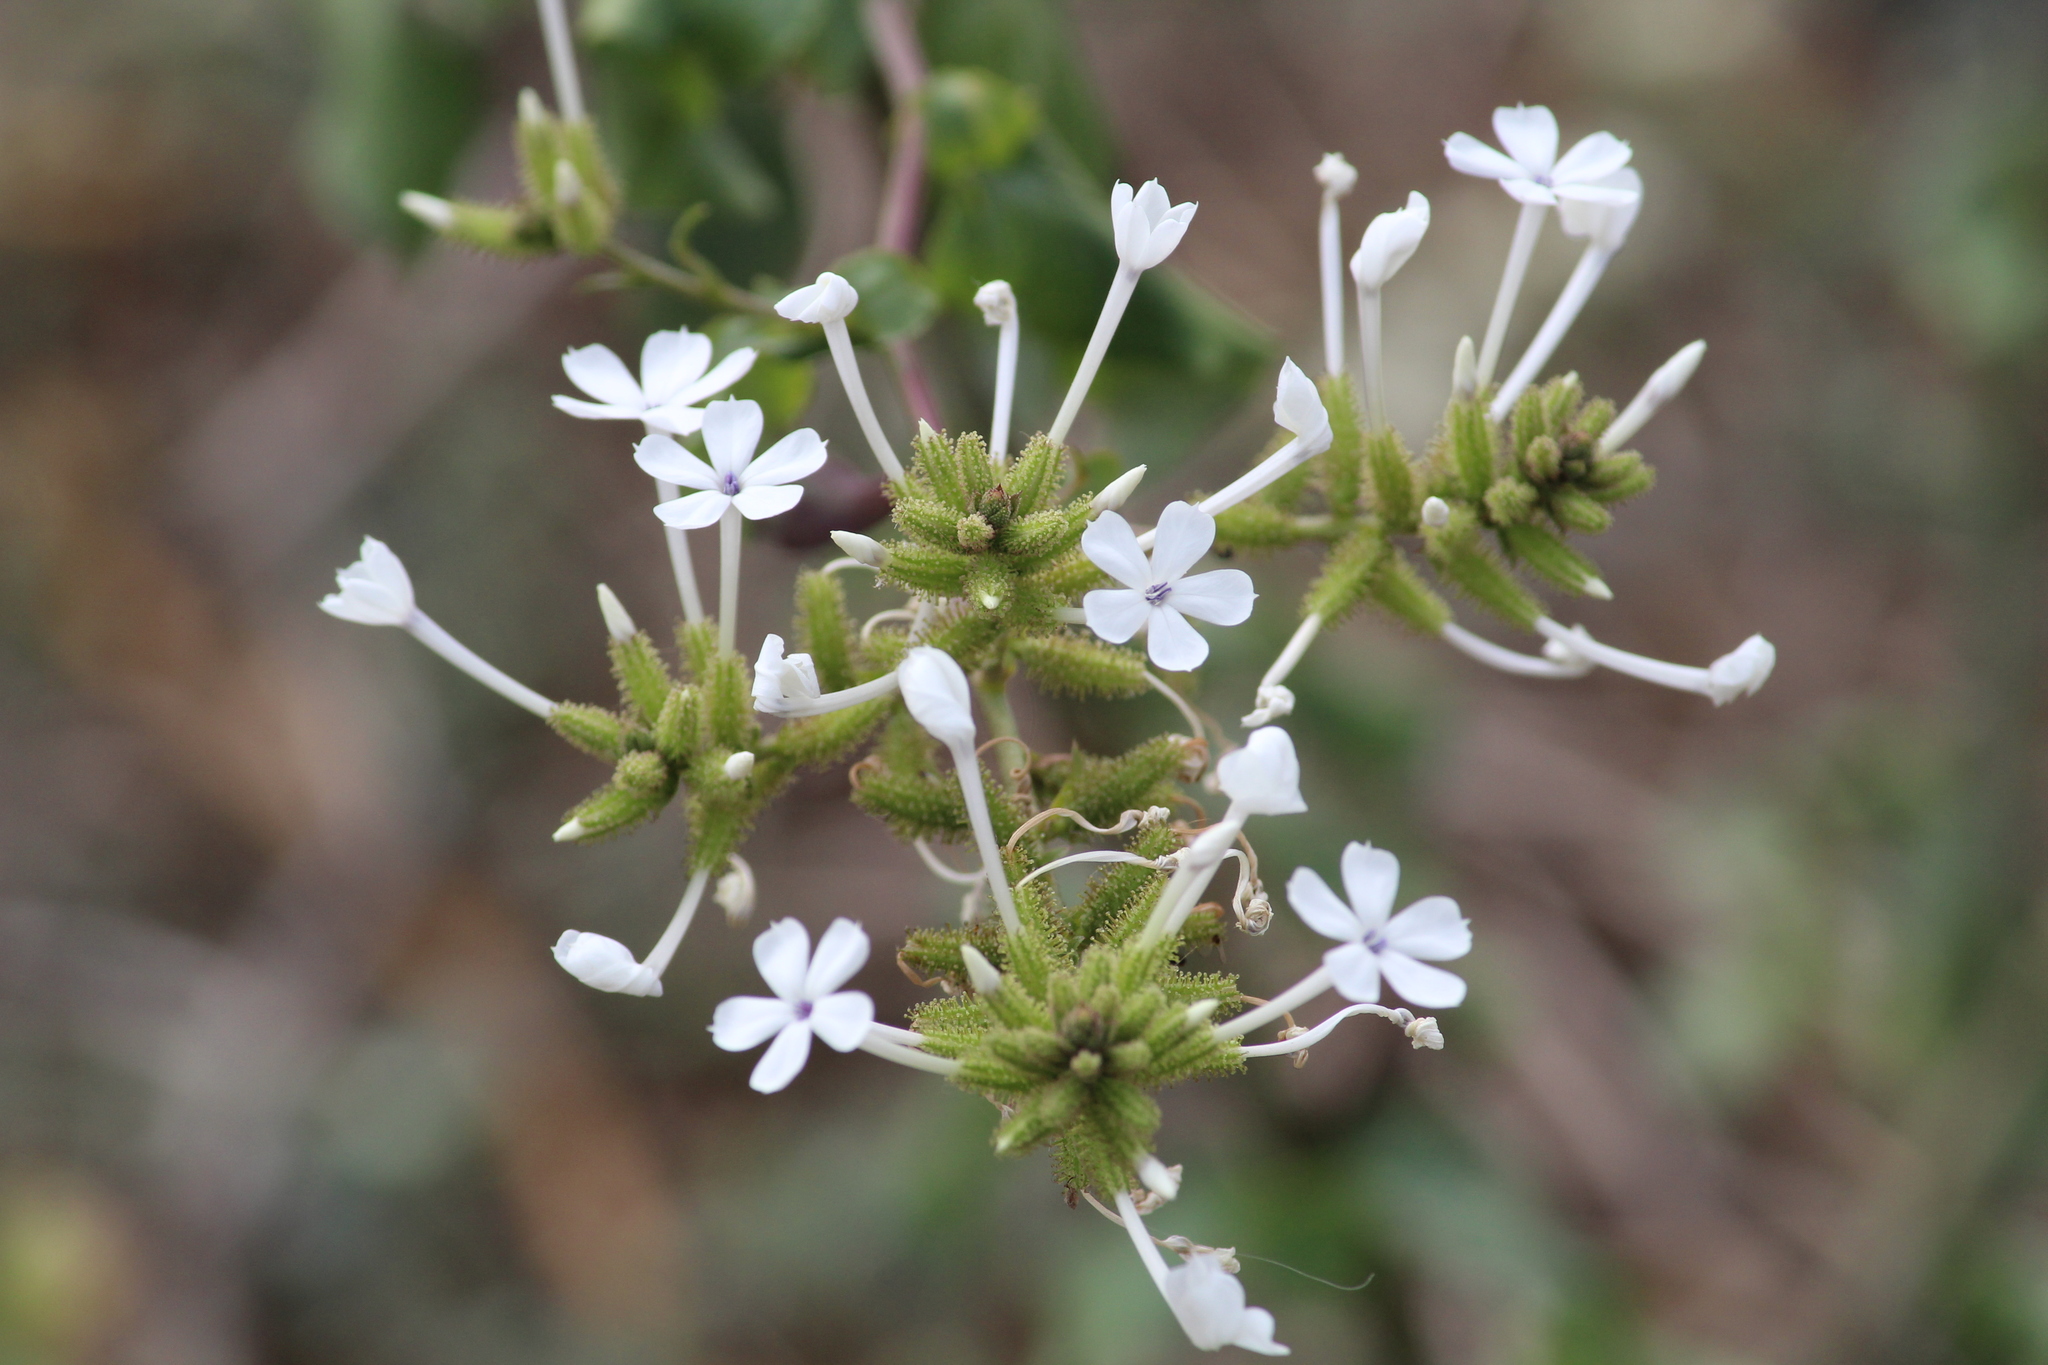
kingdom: Plantae
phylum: Tracheophyta
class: Magnoliopsida
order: Caryophyllales
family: Plumbaginaceae
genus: Plumbago
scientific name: Plumbago zeylanica
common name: Doctorbush
